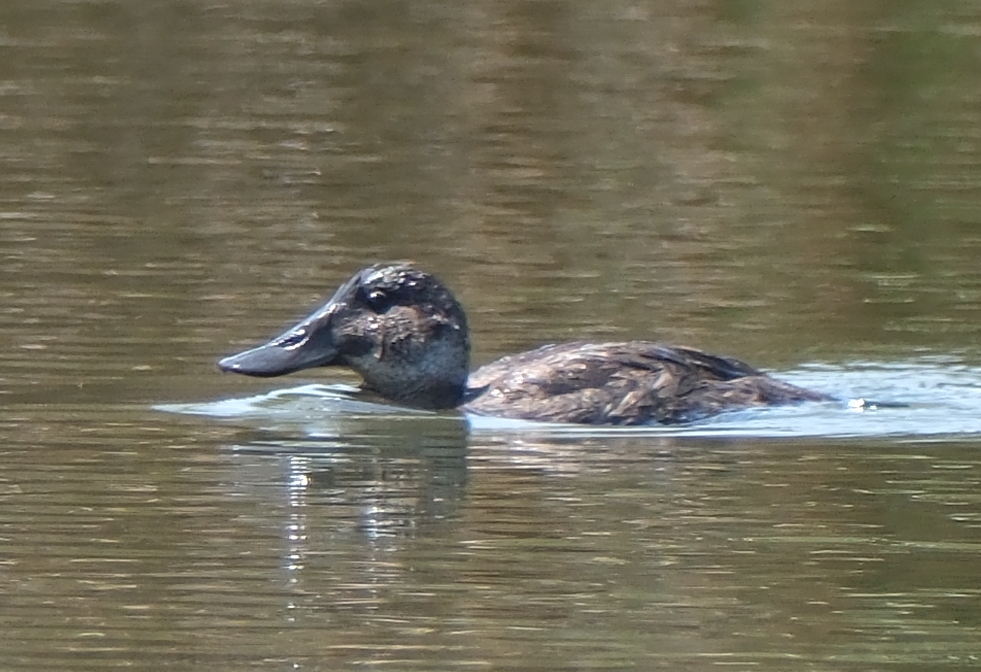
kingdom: Animalia
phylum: Chordata
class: Aves
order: Anseriformes
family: Anatidae
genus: Oxyura
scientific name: Oxyura ferruginea
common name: Andean duck
